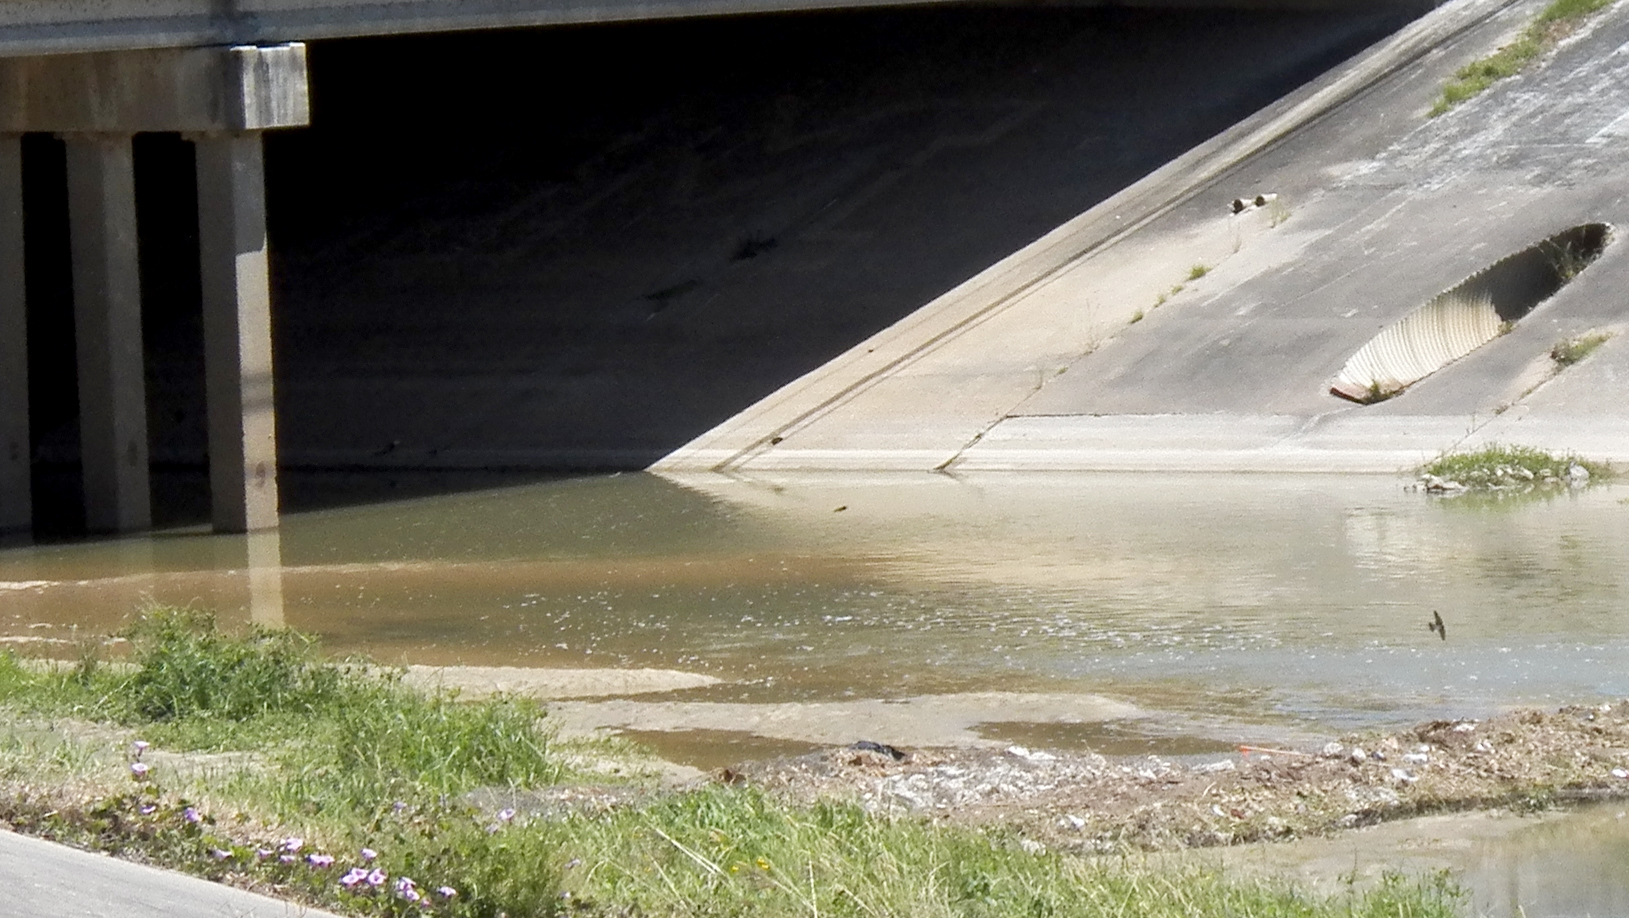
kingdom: Animalia
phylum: Chordata
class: Aves
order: Passeriformes
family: Hirundinidae
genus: Petrochelidon
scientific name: Petrochelidon pyrrhonota
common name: American cliff swallow
